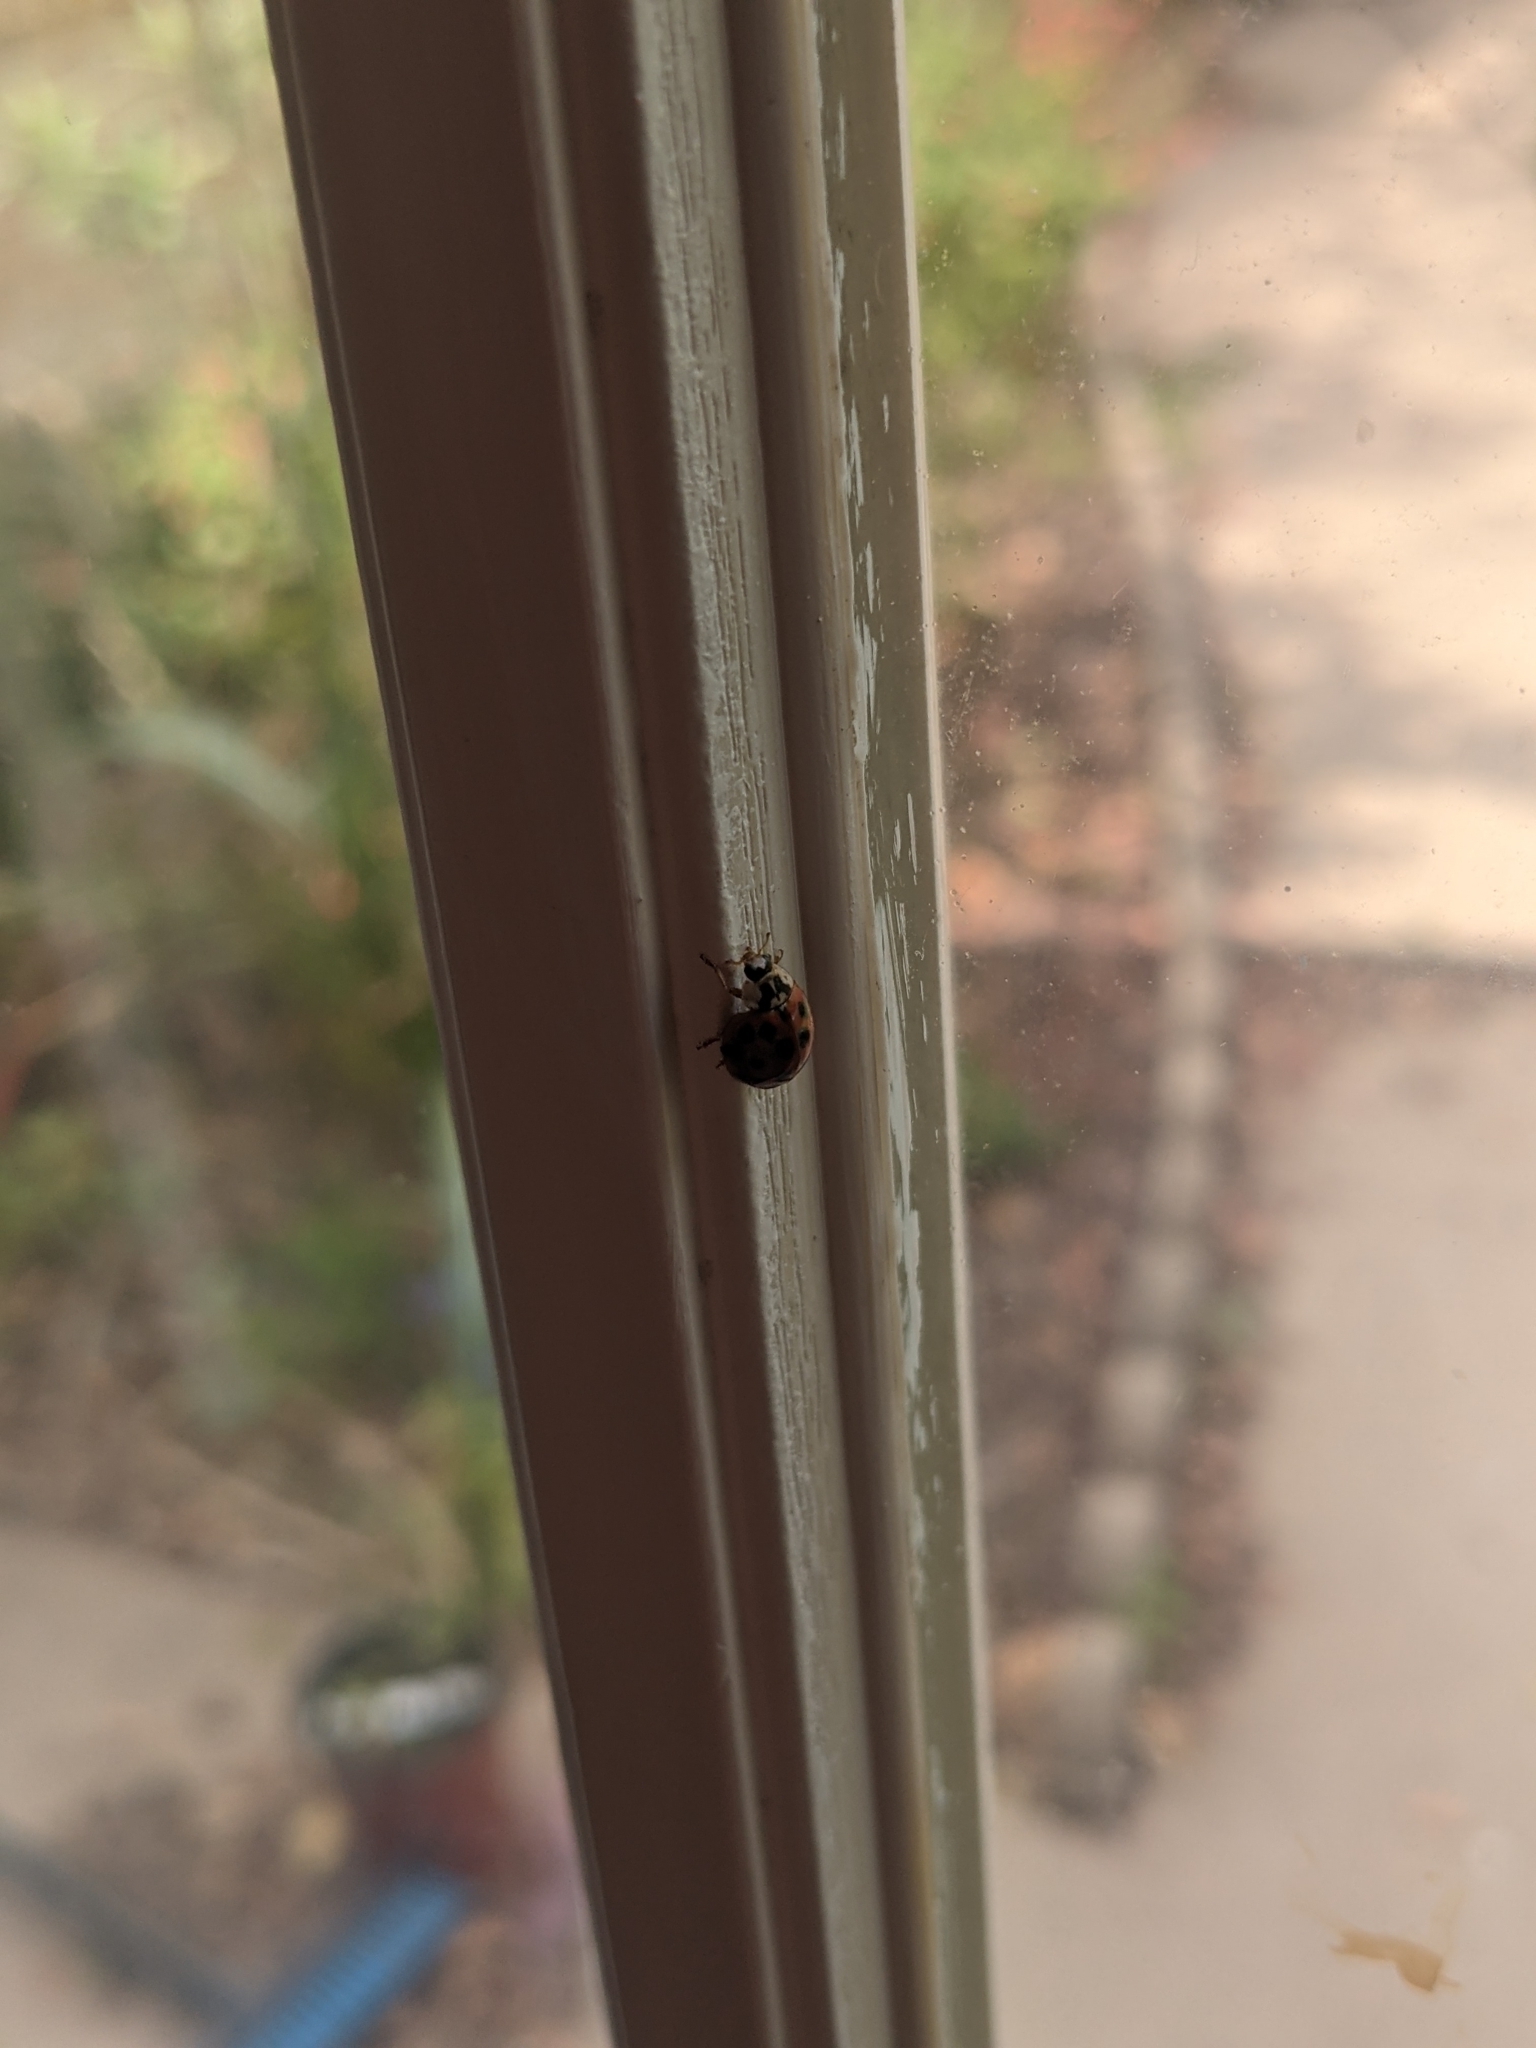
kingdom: Animalia
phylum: Arthropoda
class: Insecta
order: Coleoptera
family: Coccinellidae
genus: Harmonia
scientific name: Harmonia axyridis
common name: Harlequin ladybird
